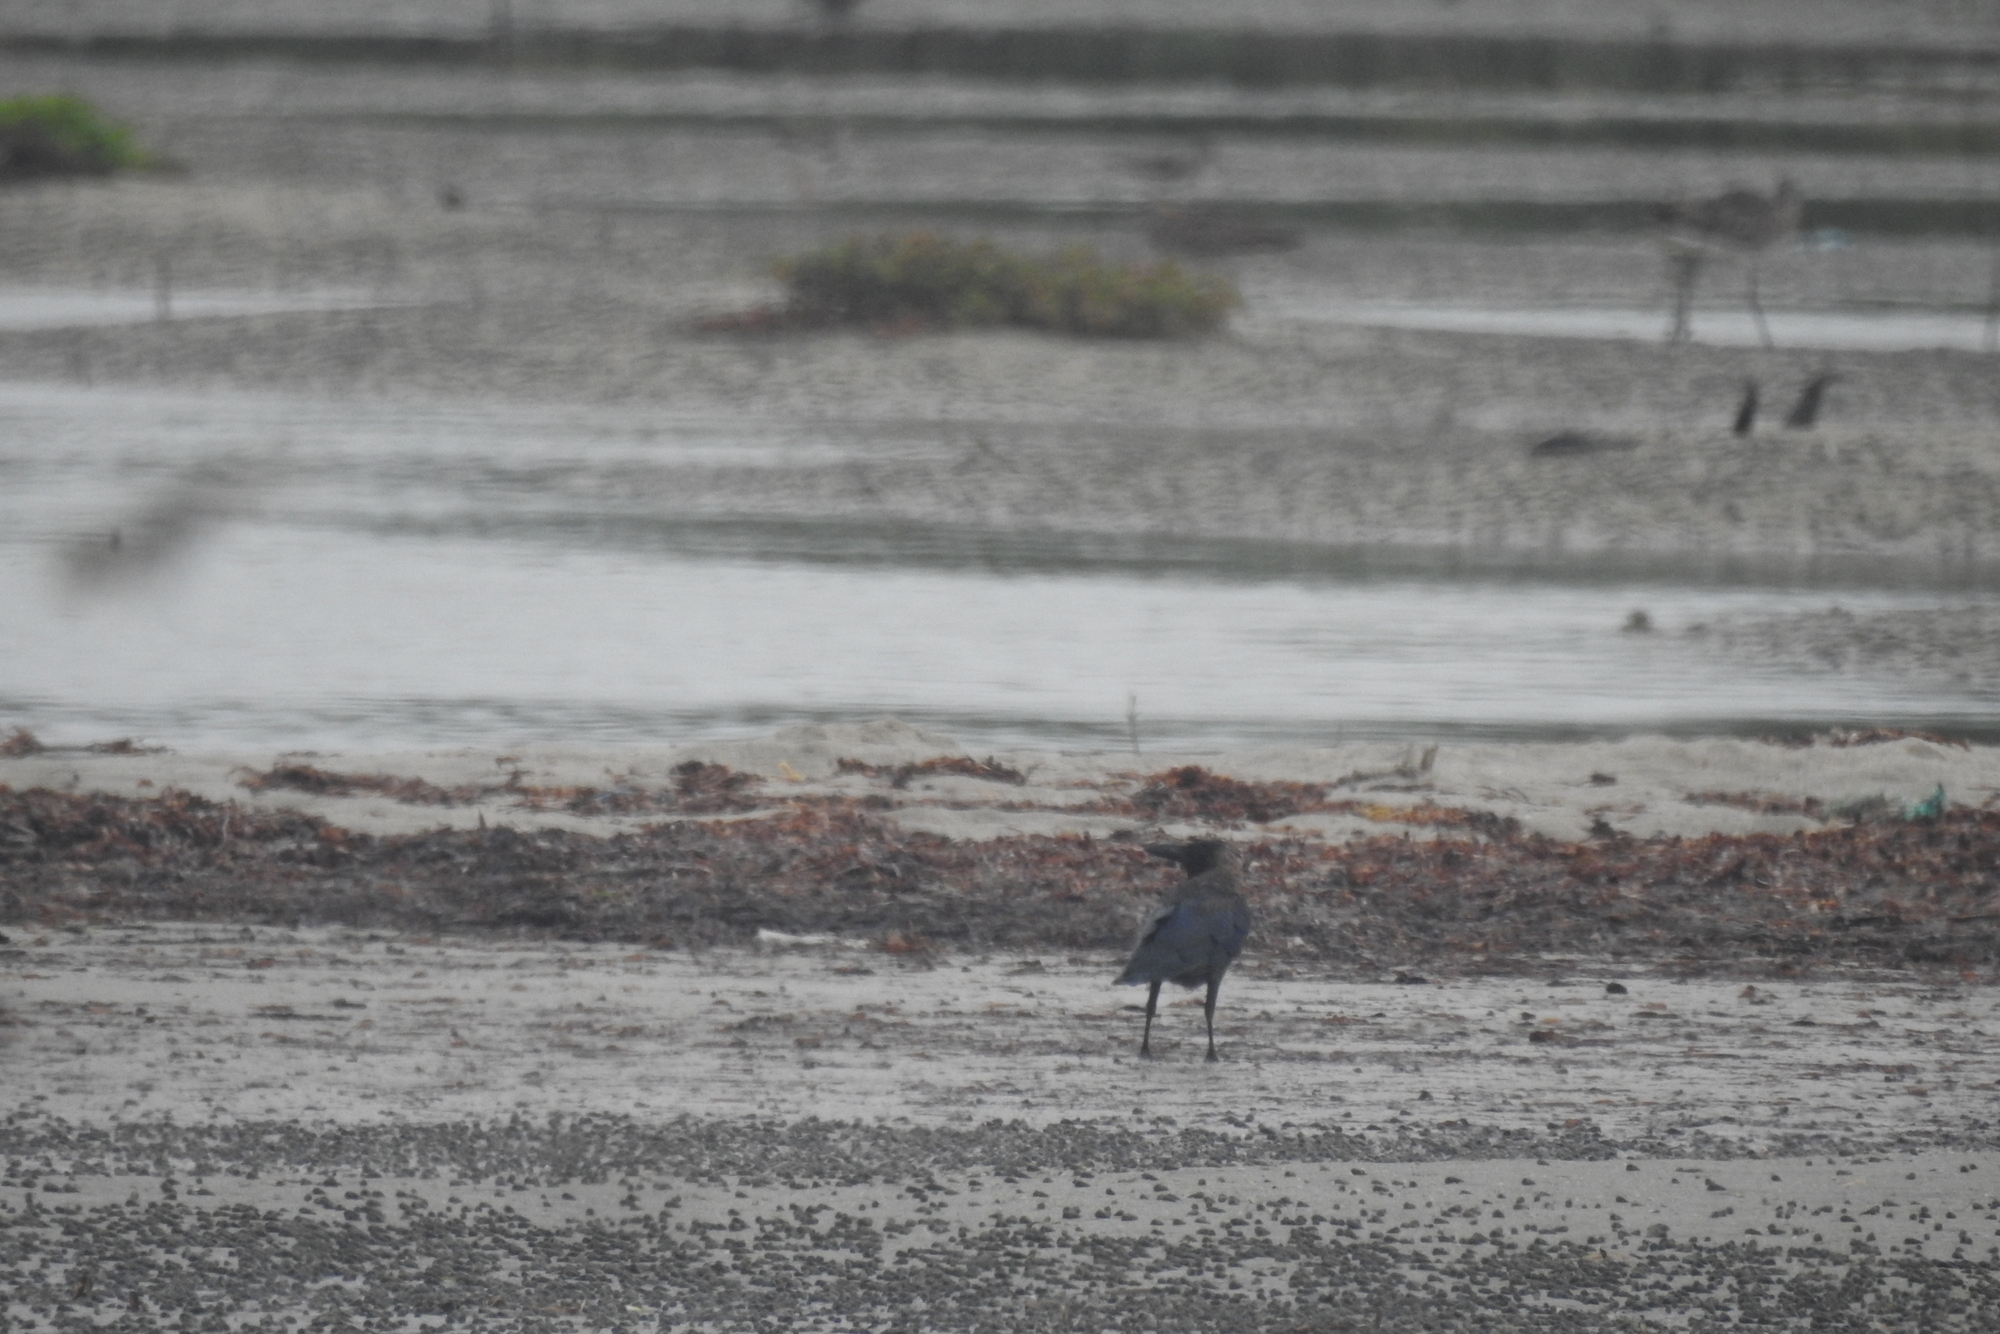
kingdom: Animalia
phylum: Chordata
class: Aves
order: Passeriformes
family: Corvidae
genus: Corvus
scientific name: Corvus splendens
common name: House crow
